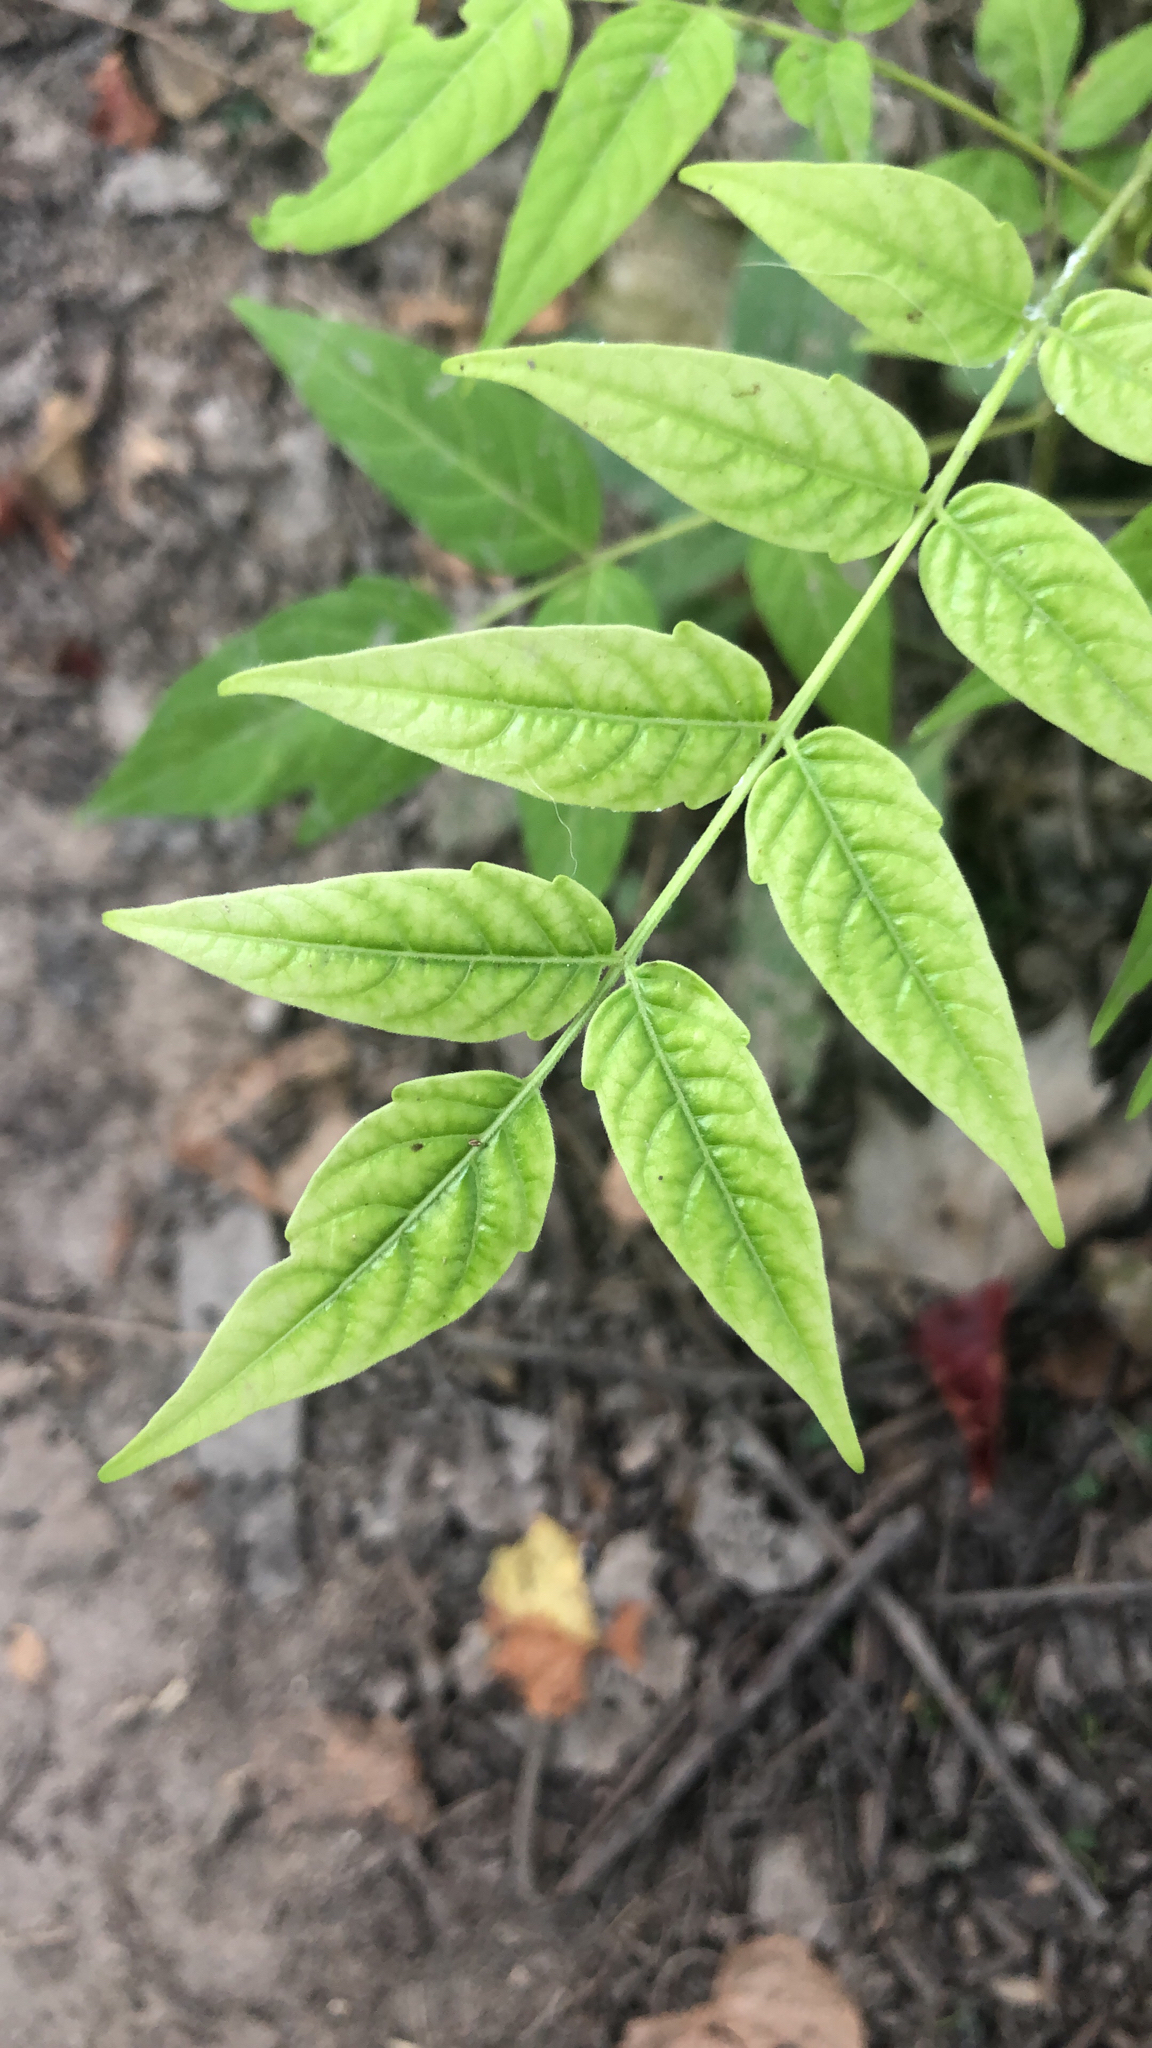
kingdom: Plantae
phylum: Tracheophyta
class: Magnoliopsida
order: Sapindales
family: Simaroubaceae
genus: Ailanthus
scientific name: Ailanthus altissima
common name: Tree-of-heaven
